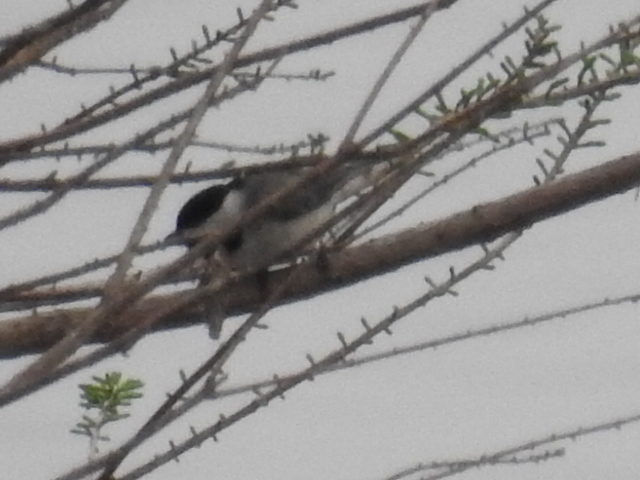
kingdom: Animalia
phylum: Chordata
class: Aves
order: Passeriformes
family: Paridae
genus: Poecile
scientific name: Poecile carolinensis
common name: Carolina chickadee
